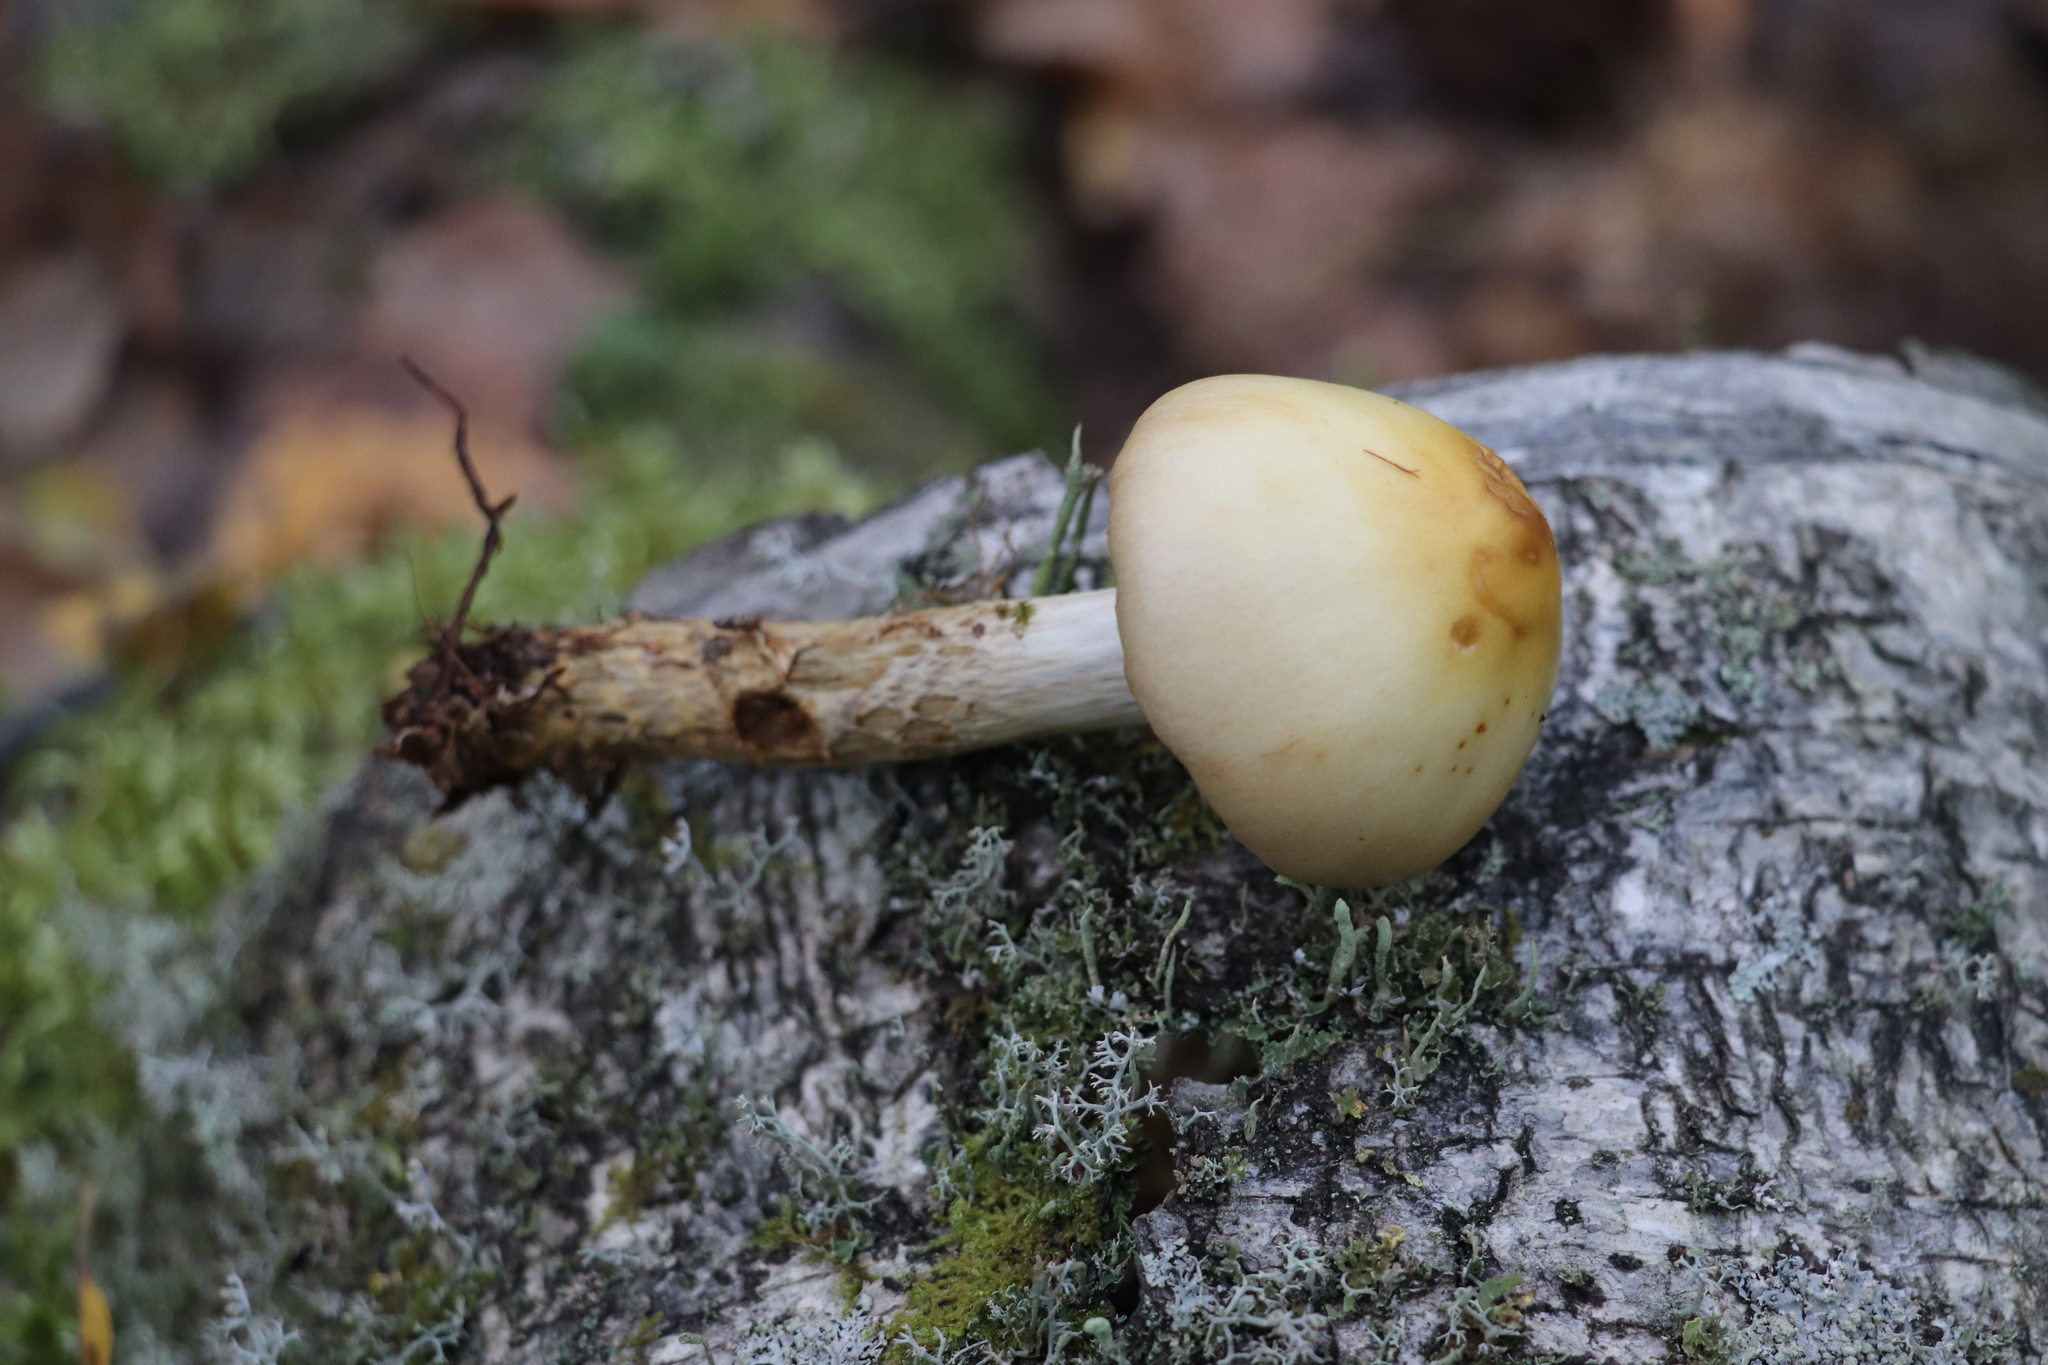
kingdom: Fungi
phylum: Basidiomycota
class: Agaricomycetes
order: Agaricales
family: Cortinariaceae
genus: Cortinarius
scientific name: Cortinarius trivialis
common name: Girdled webcap
